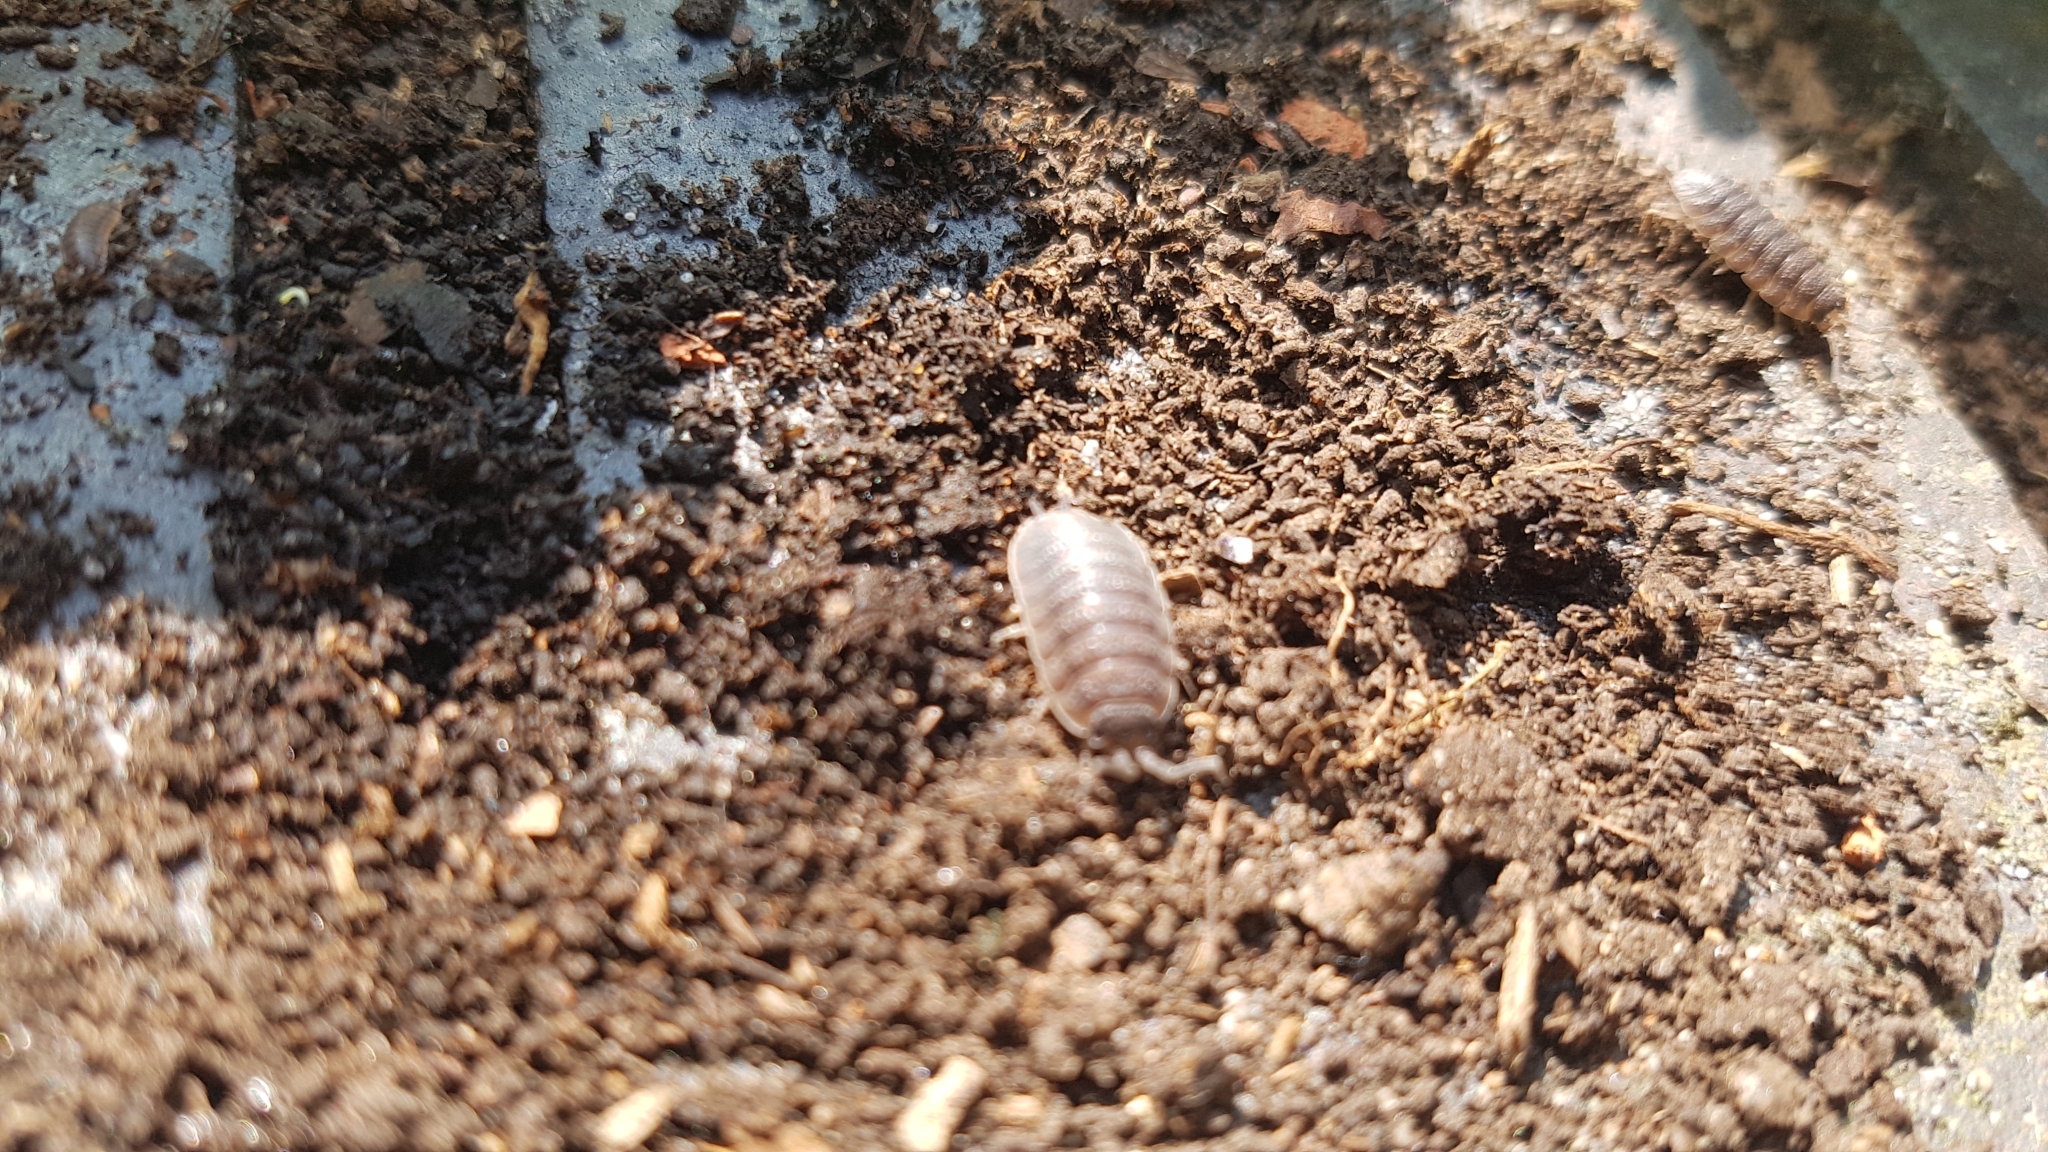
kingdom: Animalia
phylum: Arthropoda
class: Malacostraca
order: Isopoda
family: Porcellionidae
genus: Porcellio
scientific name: Porcellio scaber
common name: Common rough woodlouse
